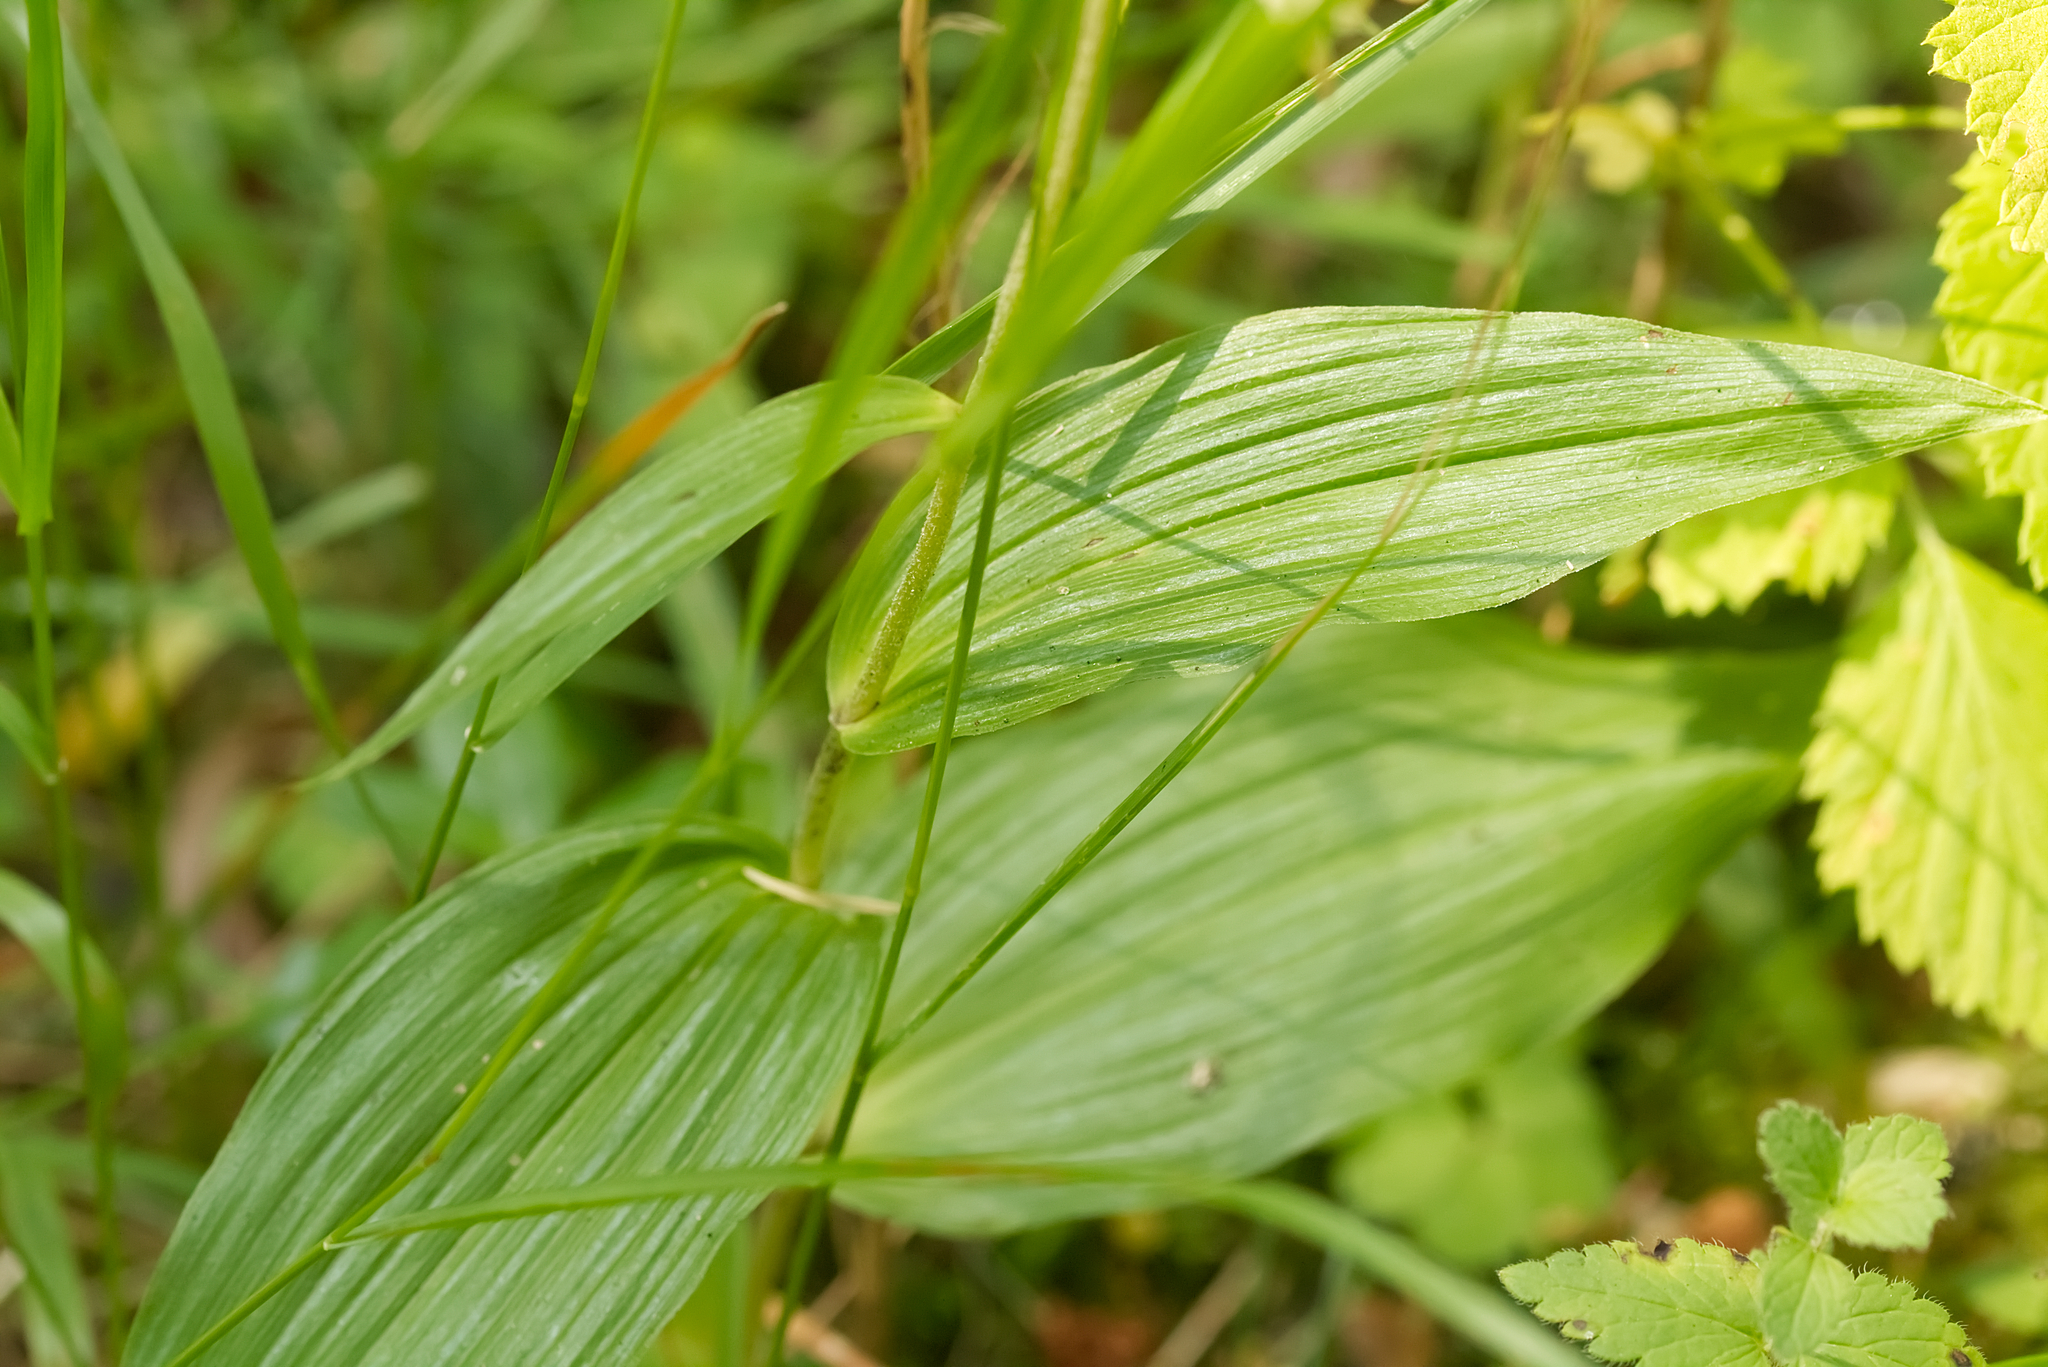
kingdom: Plantae
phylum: Tracheophyta
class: Liliopsida
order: Asparagales
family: Orchidaceae
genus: Epipactis
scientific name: Epipactis helleborine
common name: Broad-leaved helleborine
